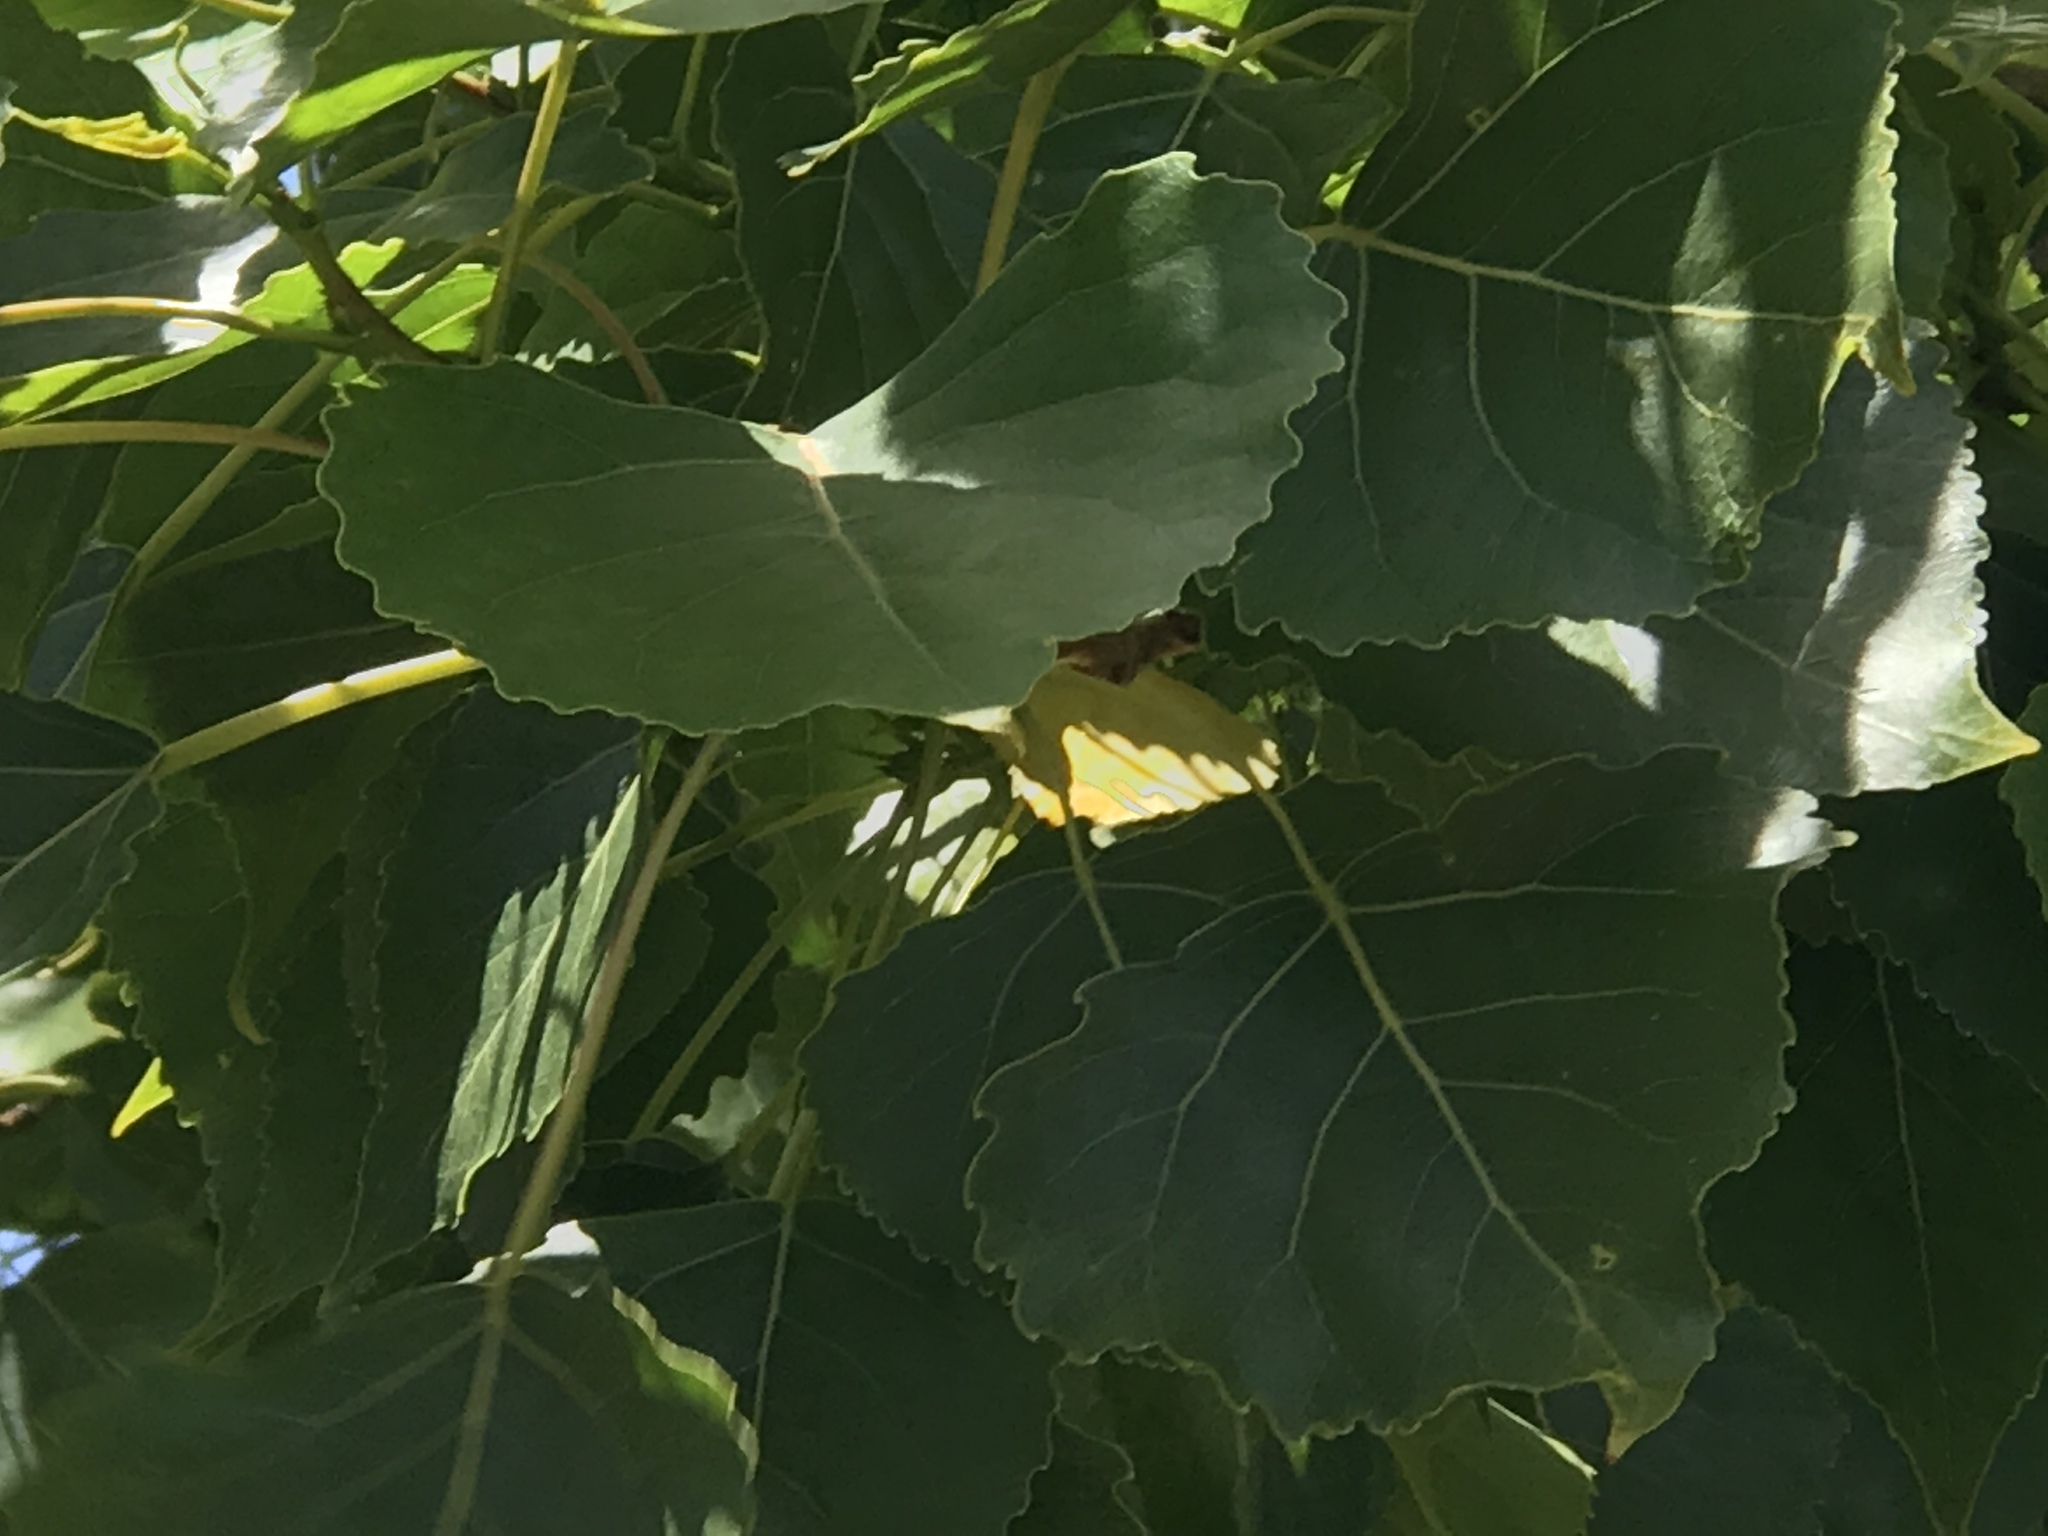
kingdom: Plantae
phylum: Tracheophyta
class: Magnoliopsida
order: Malpighiales
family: Salicaceae
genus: Populus
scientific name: Populus fremontii
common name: Fremont's cottonwood
